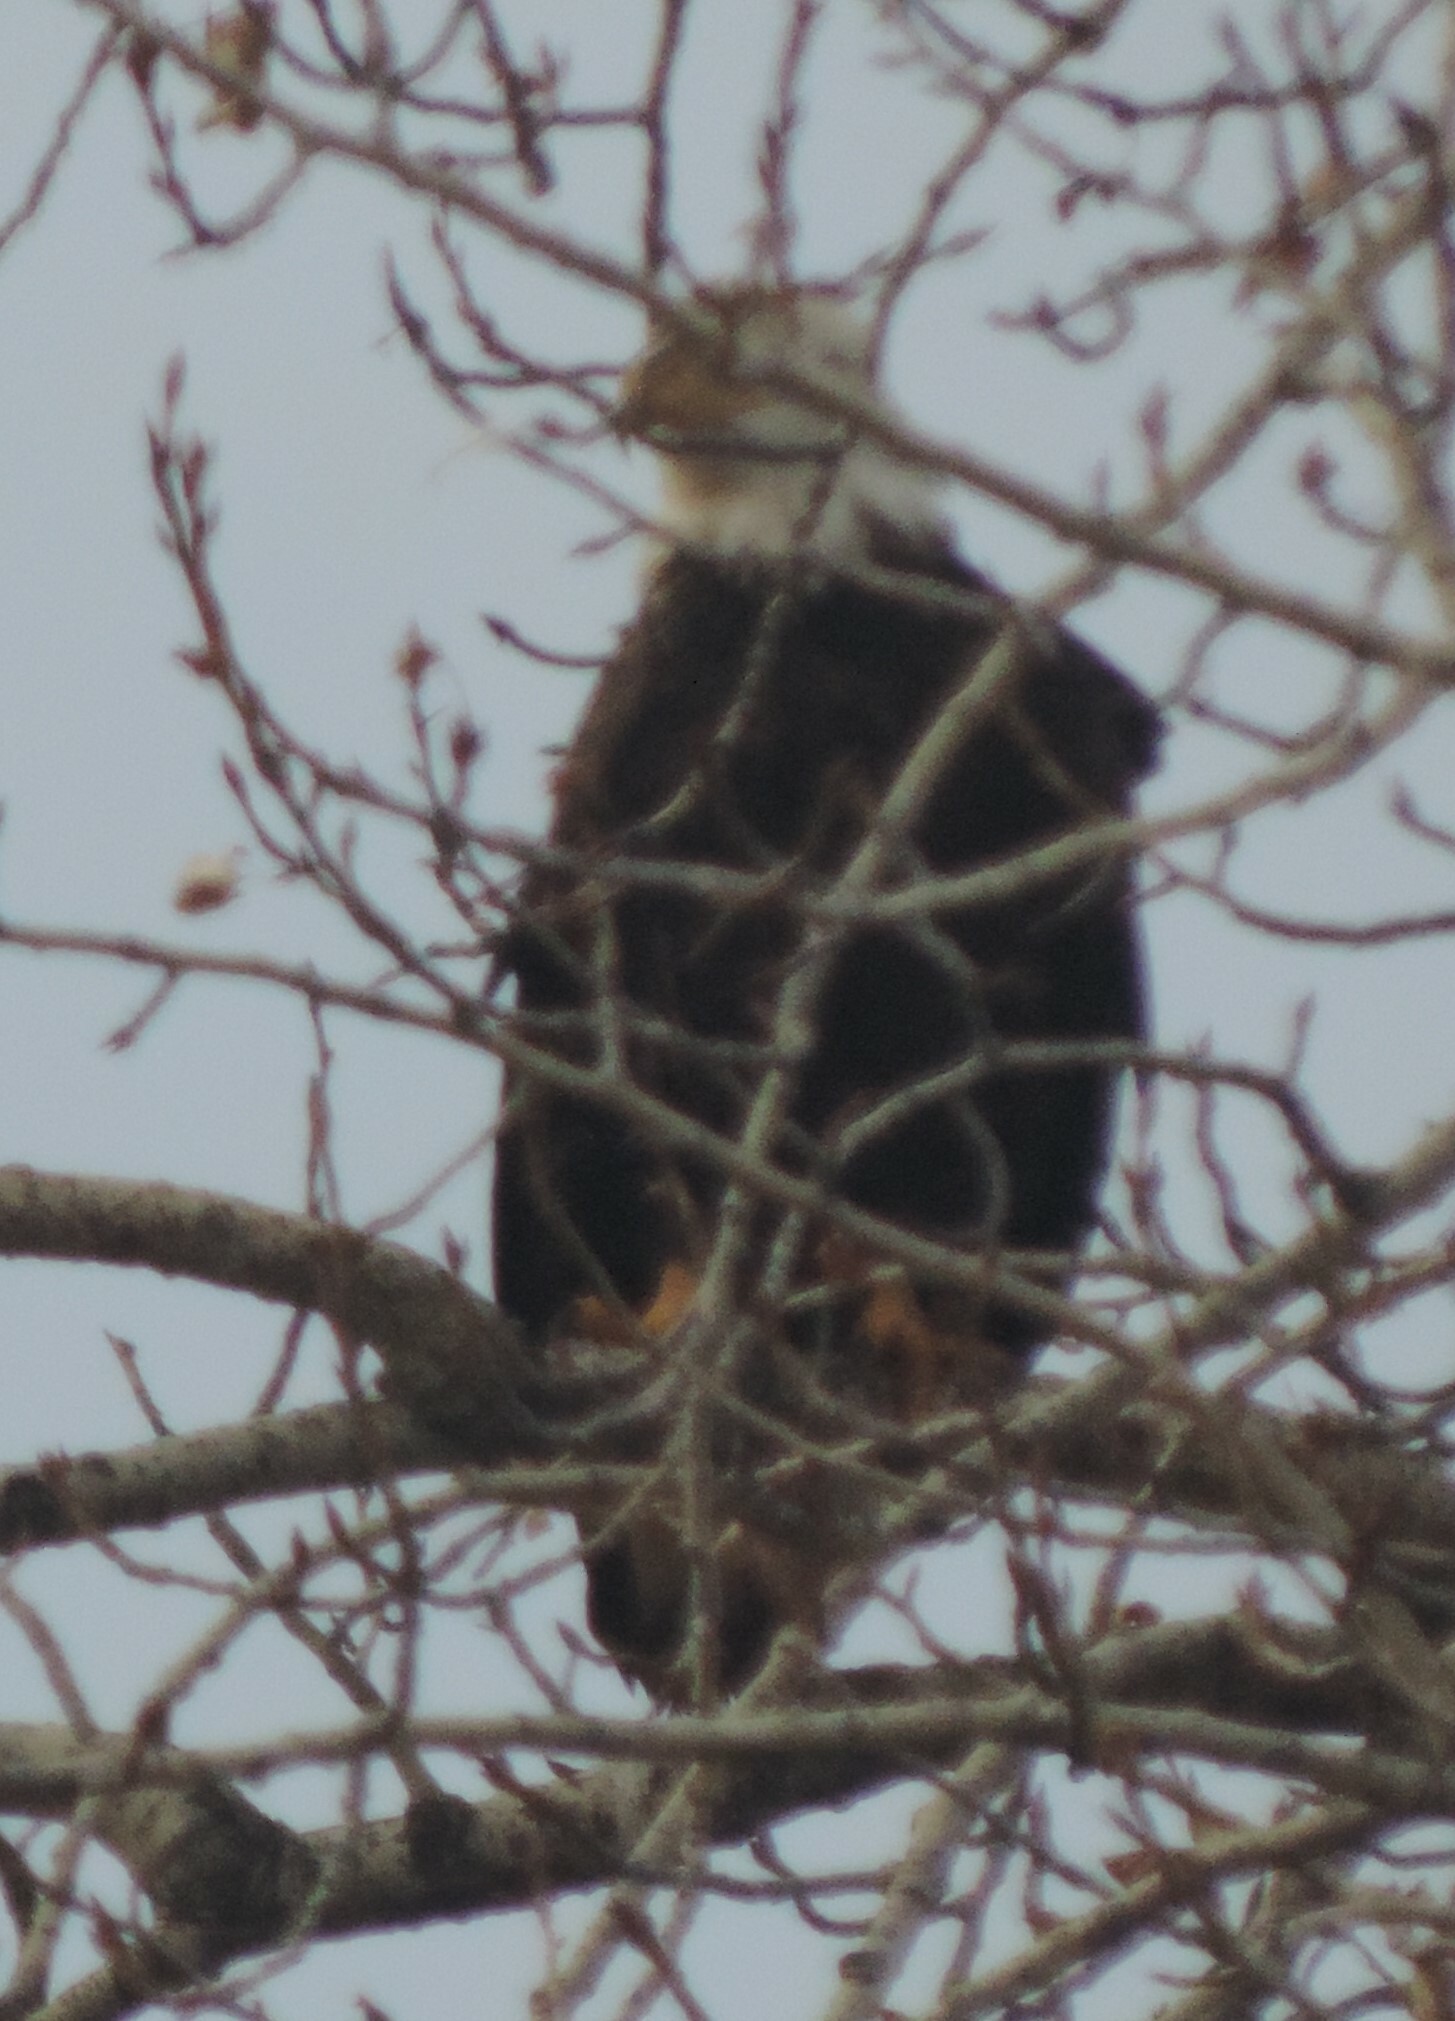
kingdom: Animalia
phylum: Chordata
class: Aves
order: Accipitriformes
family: Accipitridae
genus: Haliaeetus
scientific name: Haliaeetus leucocephalus
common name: Bald eagle
